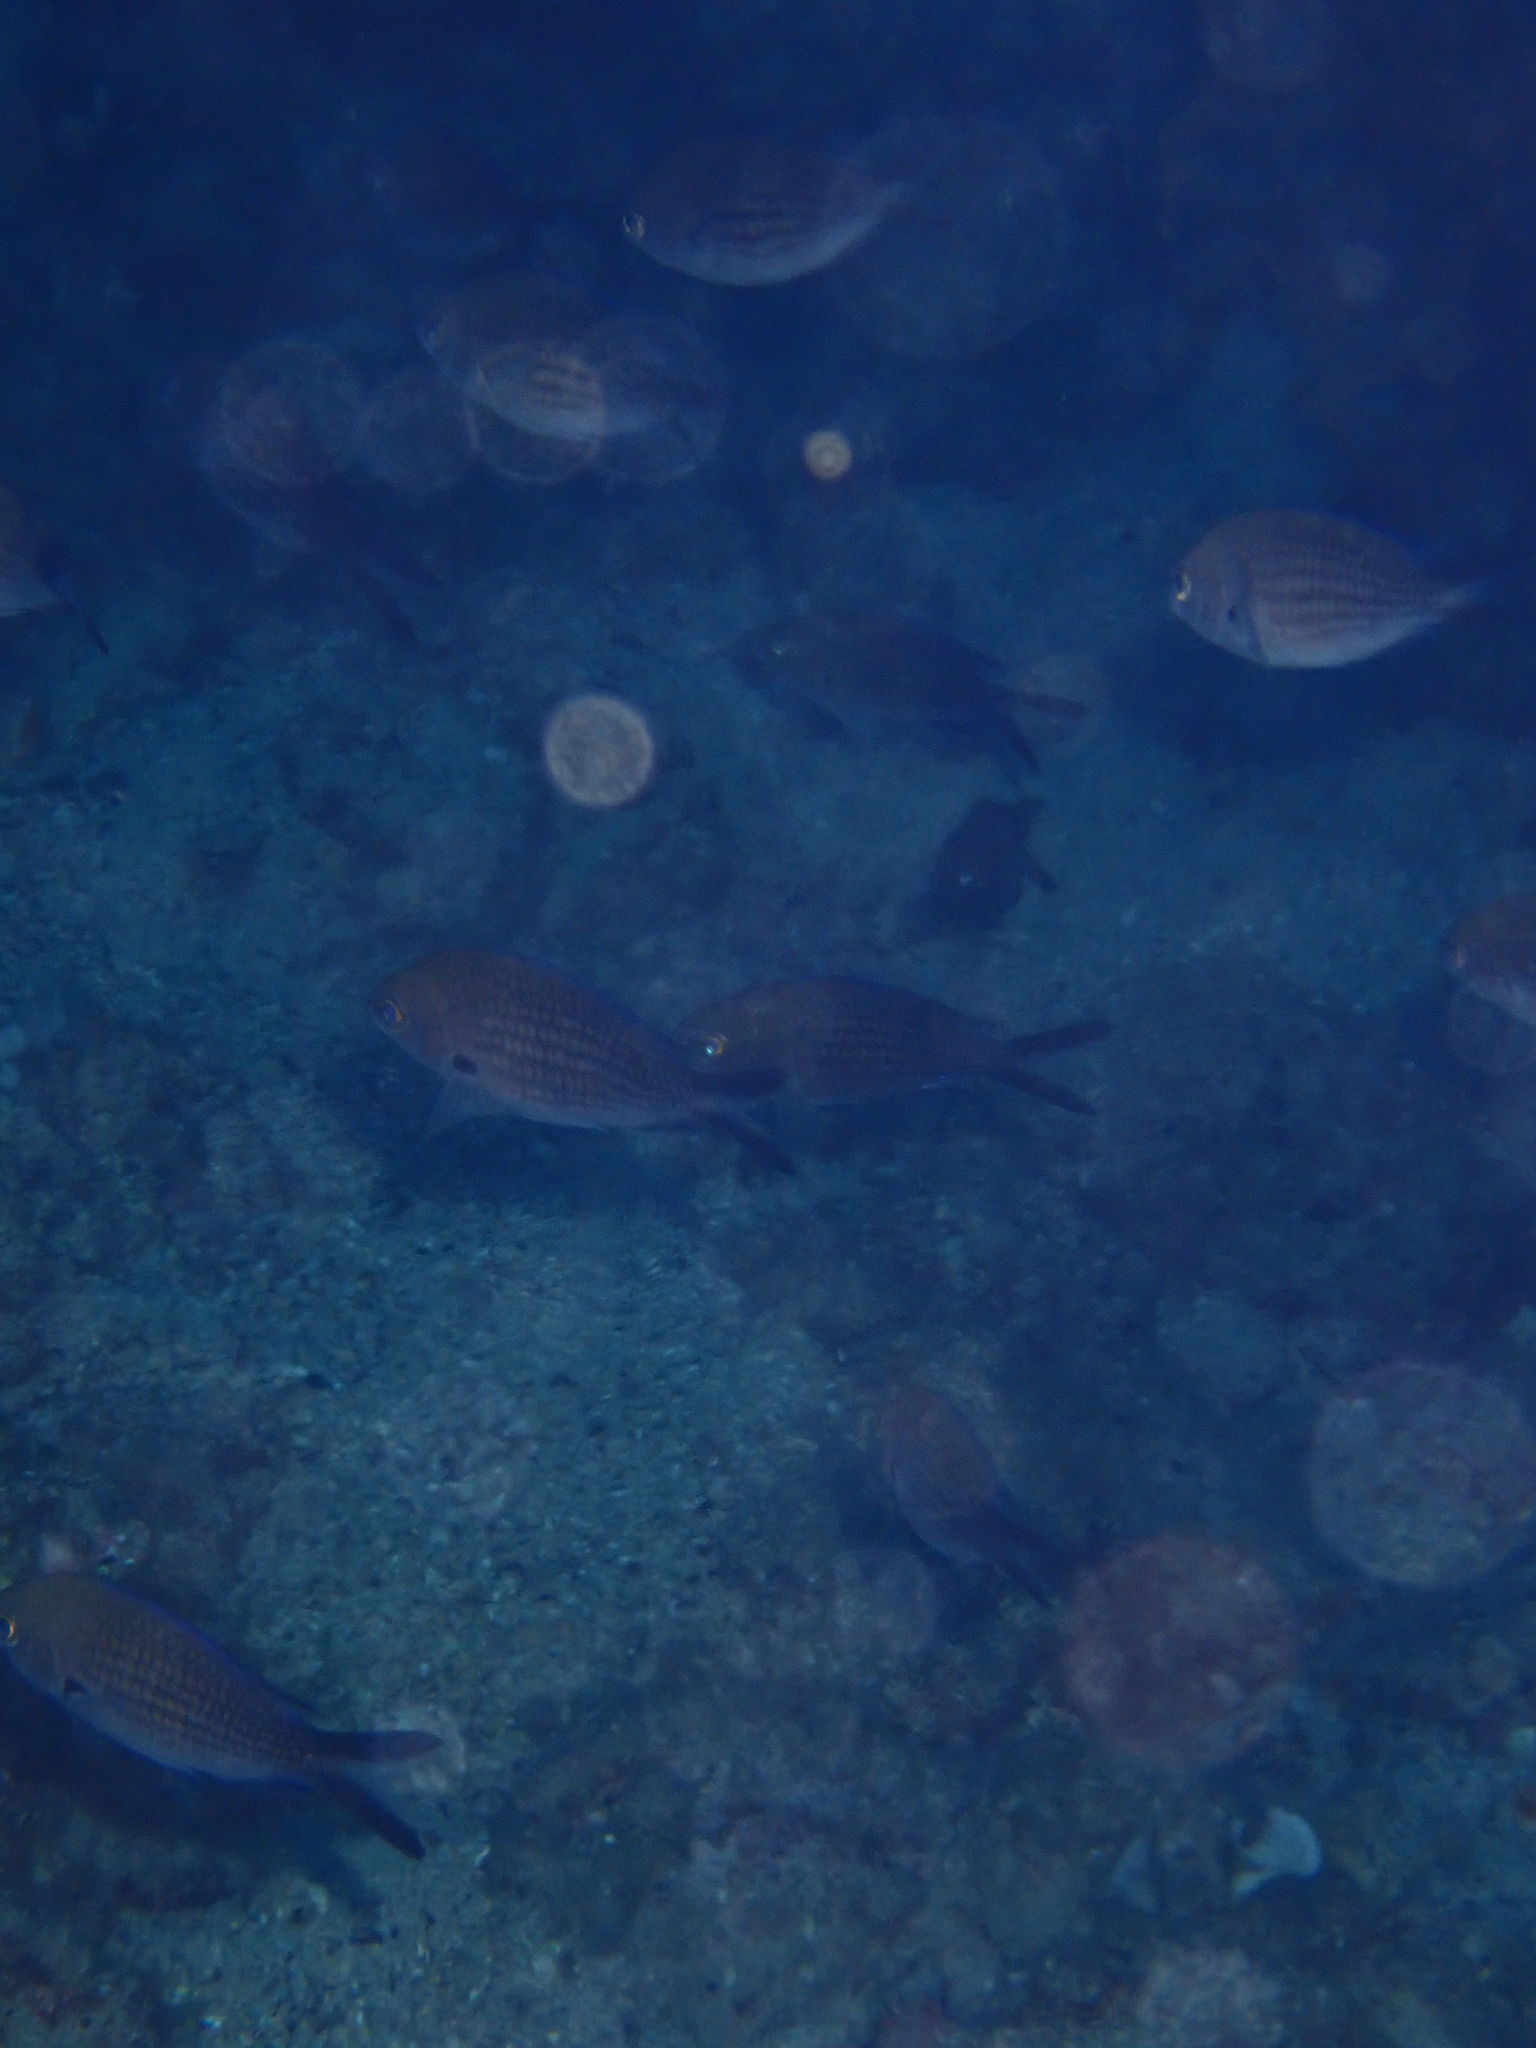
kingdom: Animalia
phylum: Chordata
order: Perciformes
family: Pomacentridae
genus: Chromis
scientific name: Chromis chromis
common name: Damselfish
